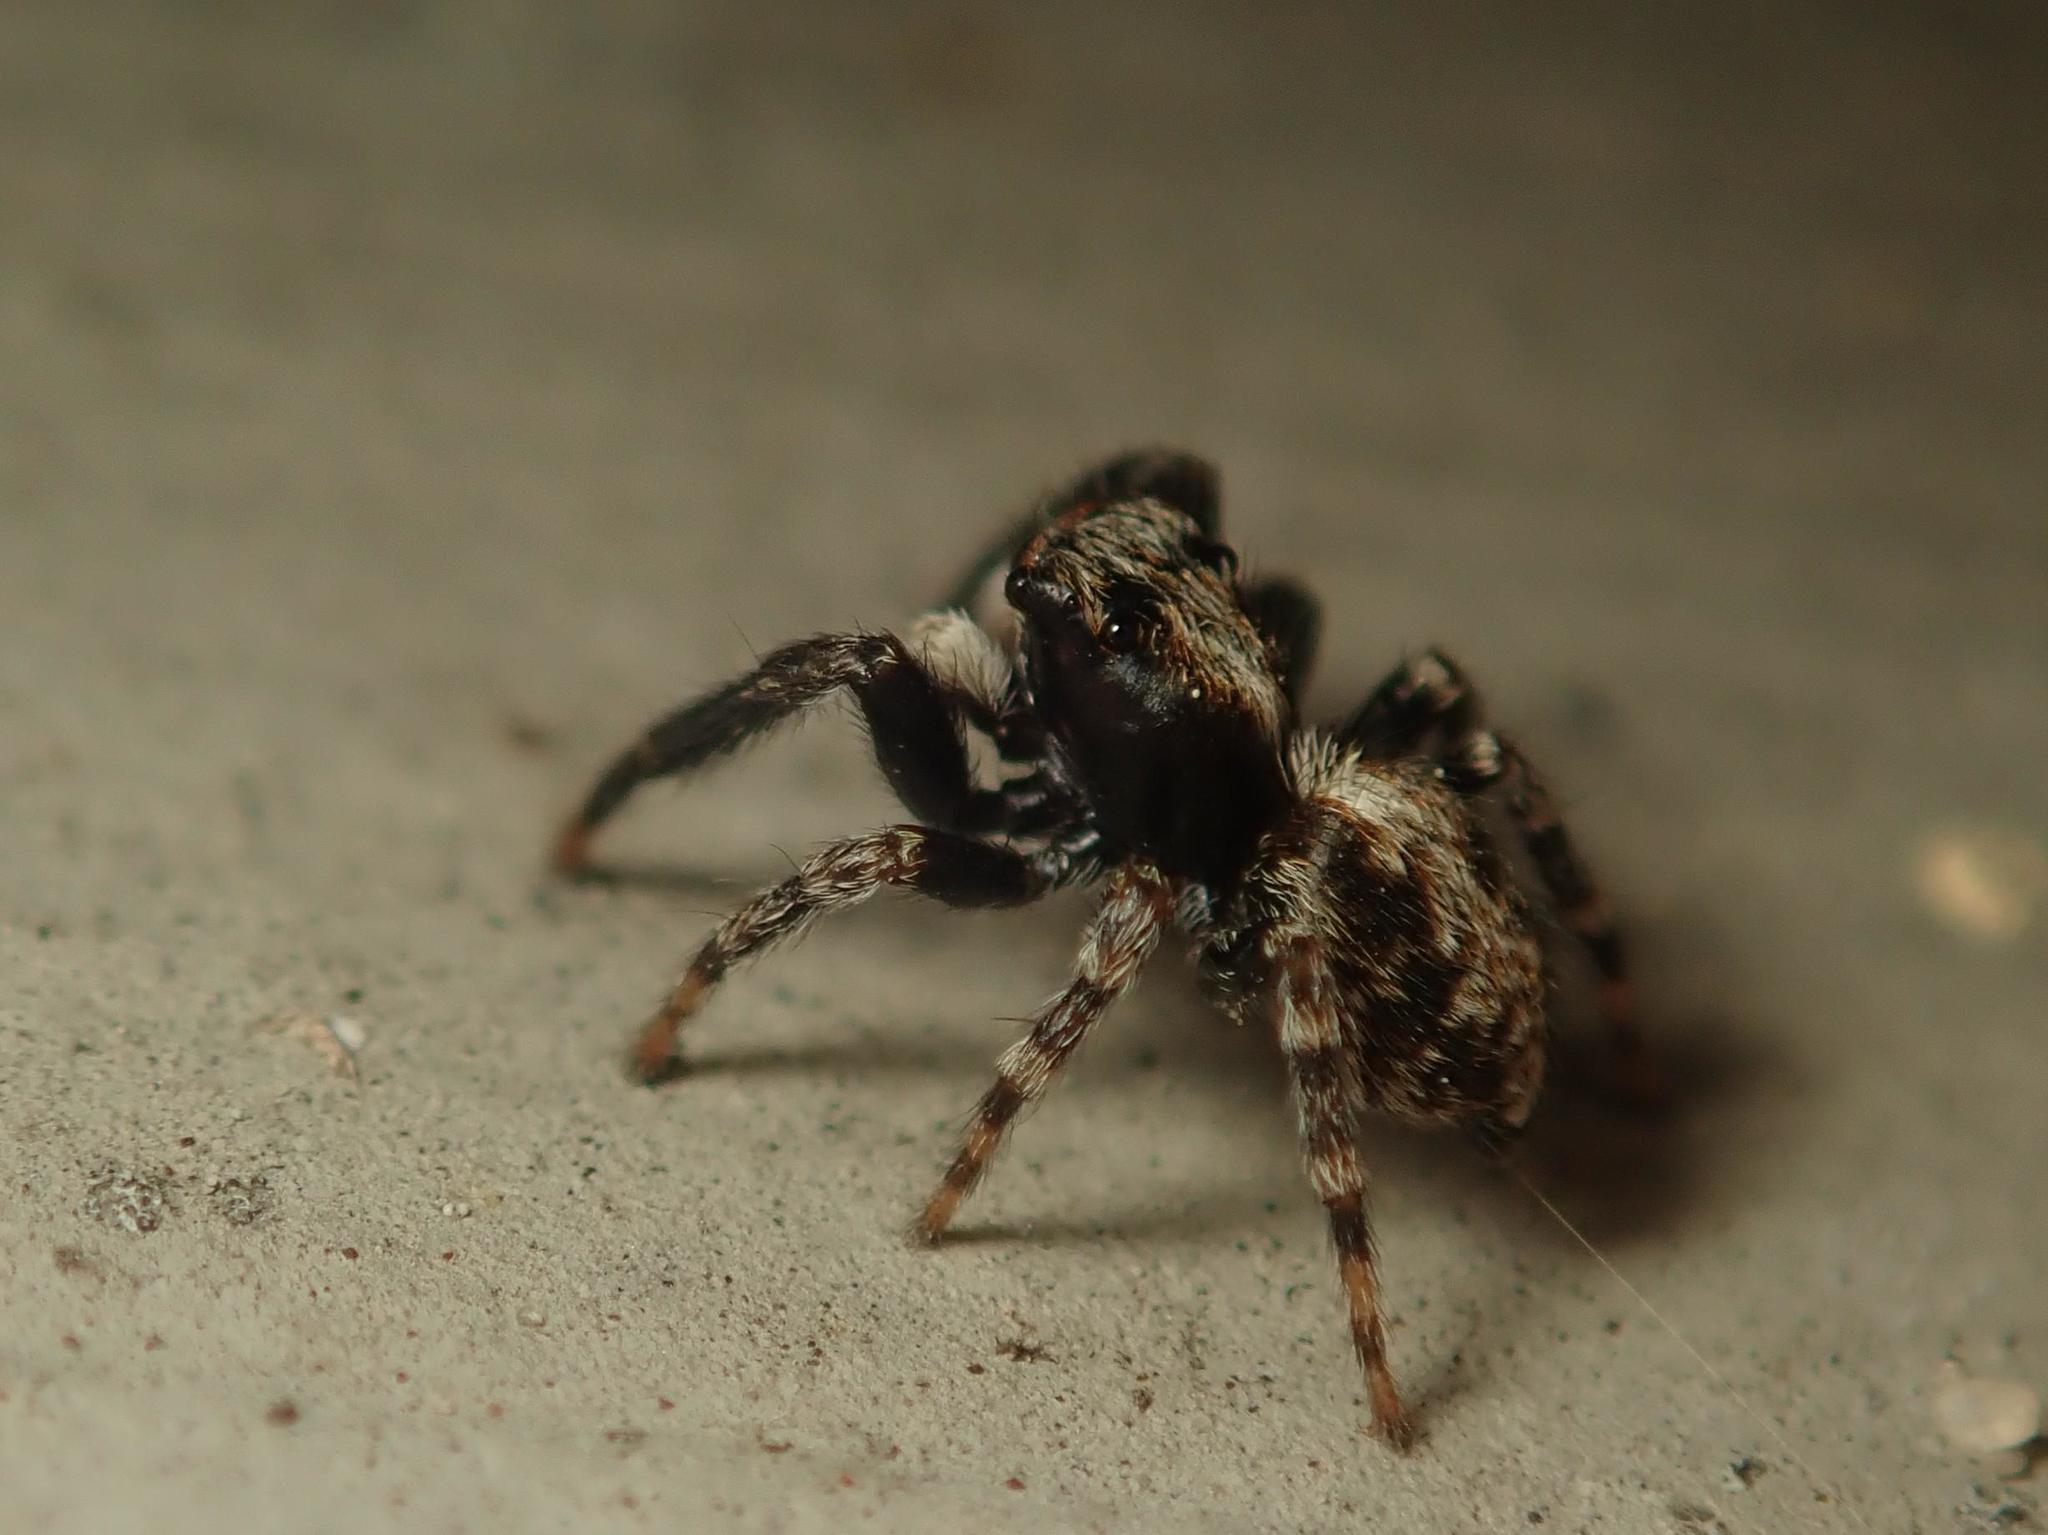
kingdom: Animalia
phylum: Arthropoda
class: Arachnida
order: Araneae
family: Salticidae
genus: Pseudeuophrys
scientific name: Pseudeuophrys lanigera
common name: Jumping spider
